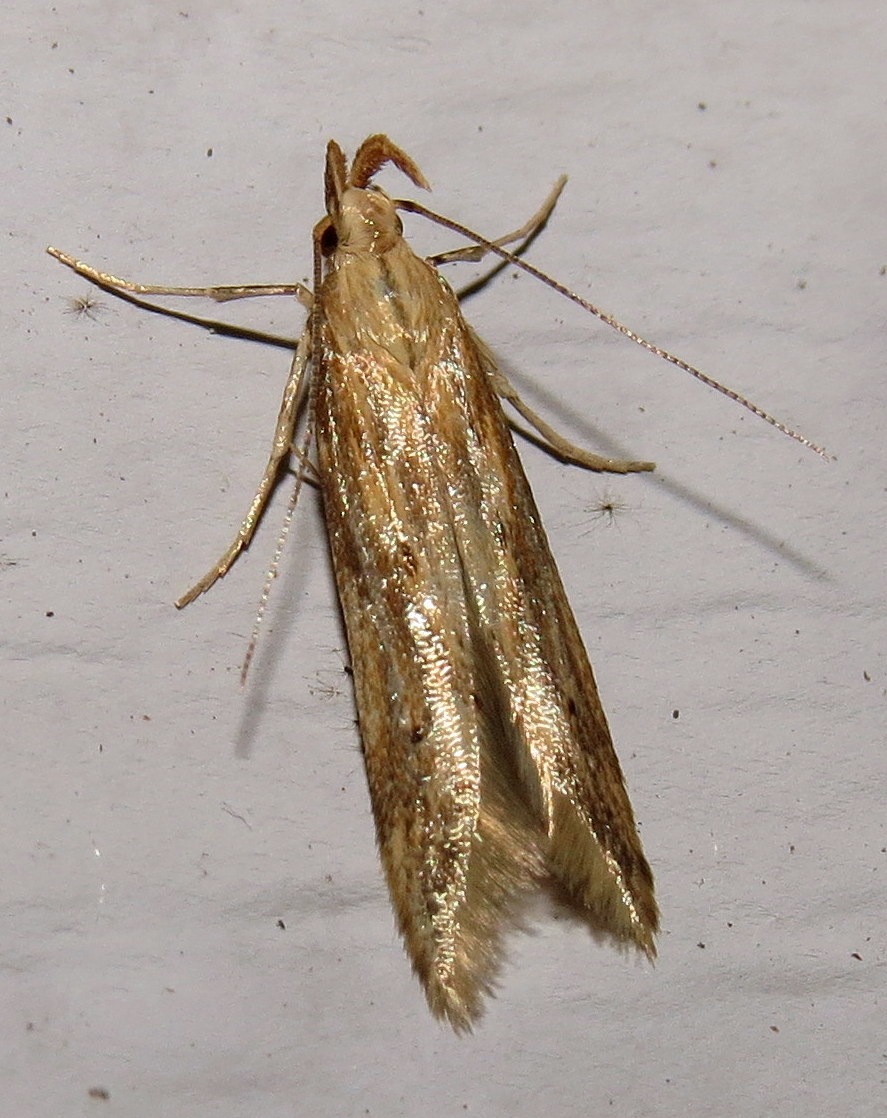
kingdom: Animalia
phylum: Arthropoda
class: Insecta
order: Lepidoptera
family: Gelechiidae
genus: Metzneria
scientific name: Metzneria lappella
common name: Burdock neb
